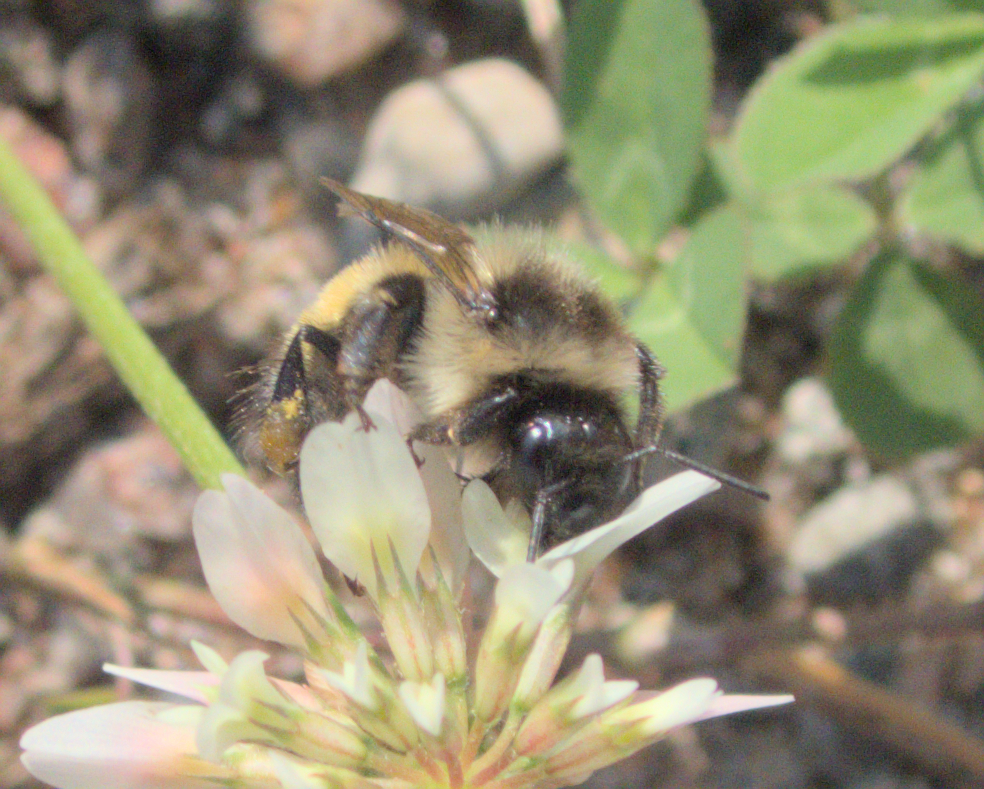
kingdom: Animalia
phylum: Arthropoda
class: Insecta
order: Hymenoptera
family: Apidae
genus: Bombus
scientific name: Bombus
